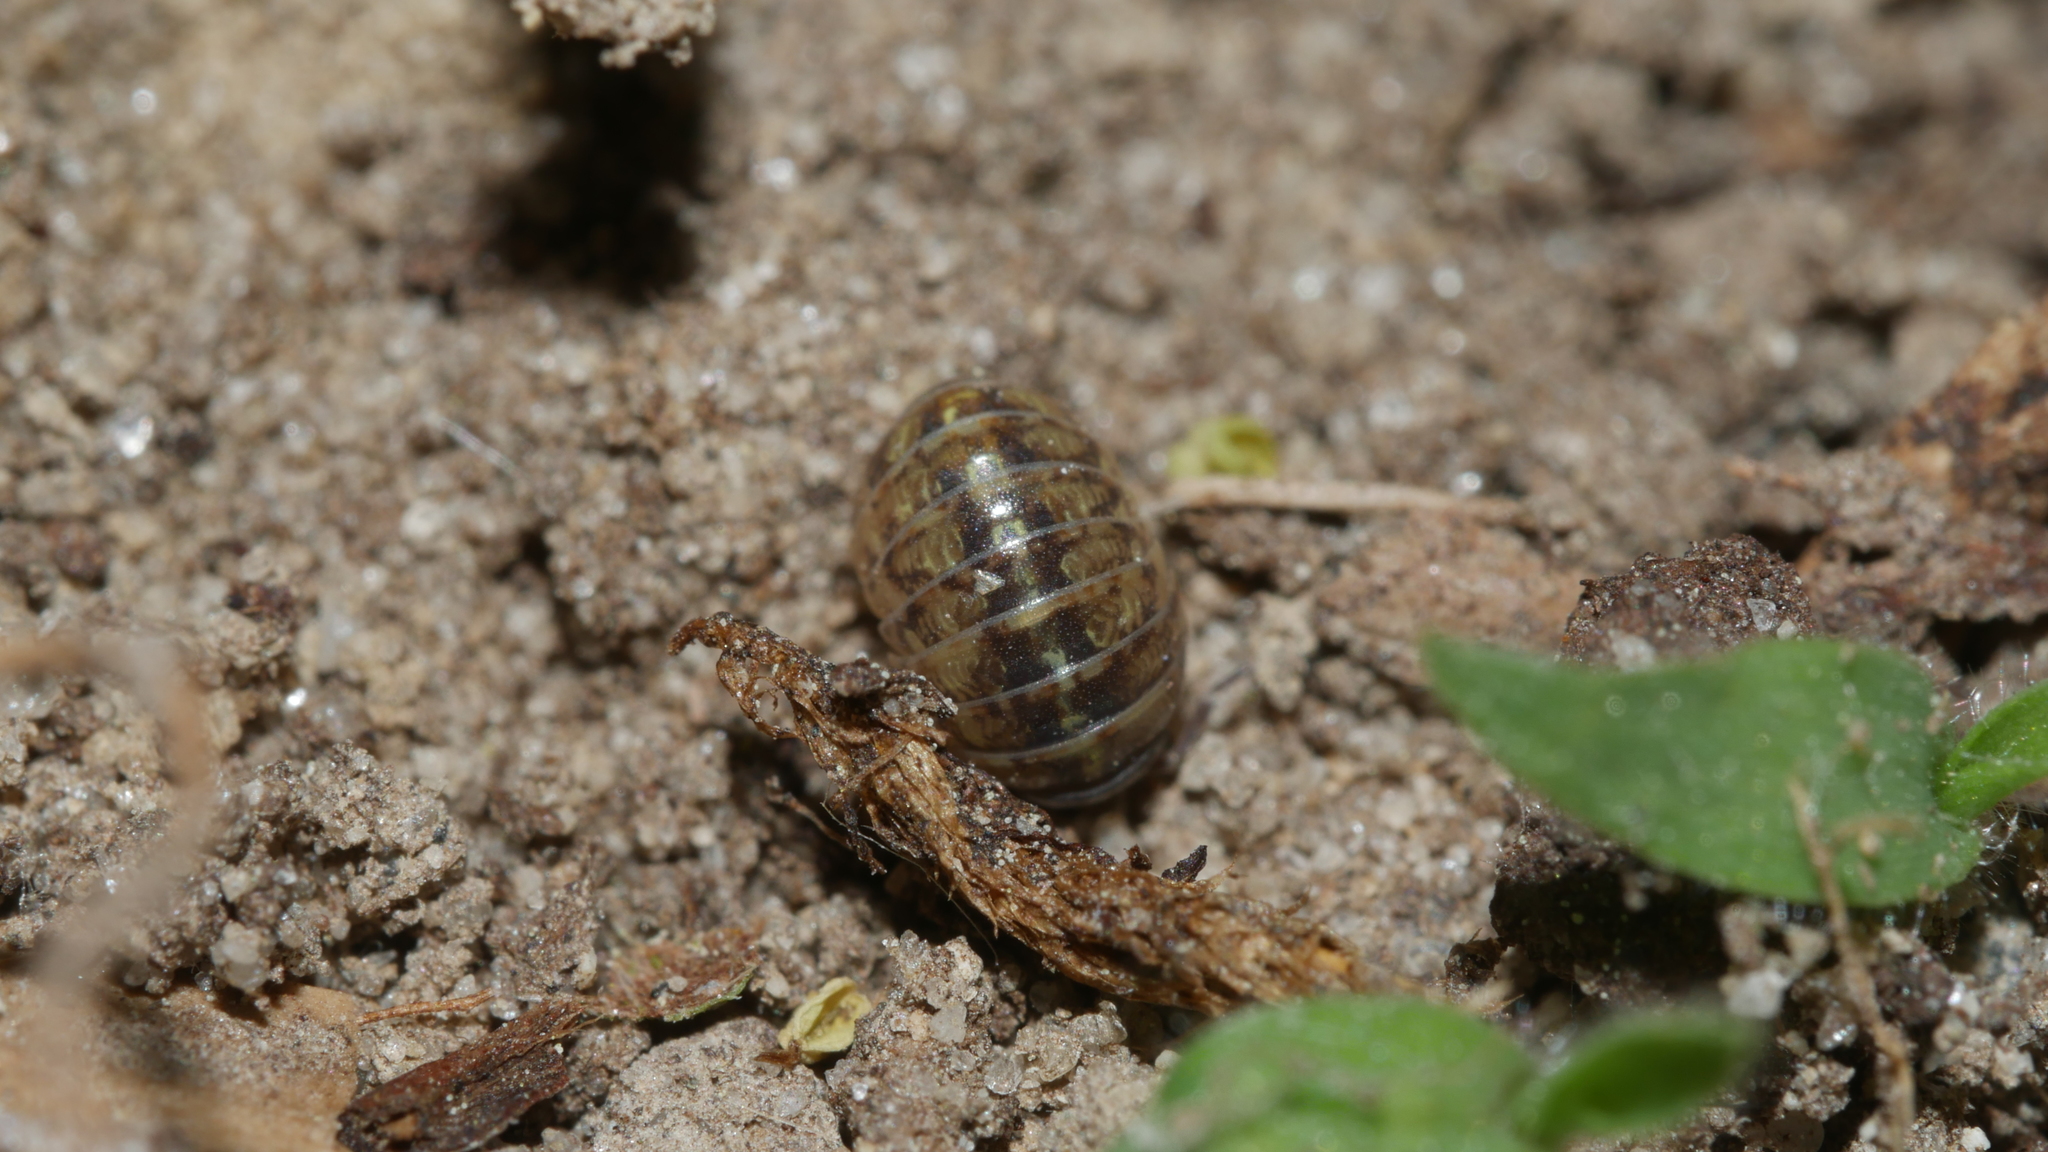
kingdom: Animalia
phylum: Arthropoda
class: Malacostraca
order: Isopoda
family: Armadillidiidae
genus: Armadillidium
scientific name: Armadillidium vulgare
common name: Common pill woodlouse
